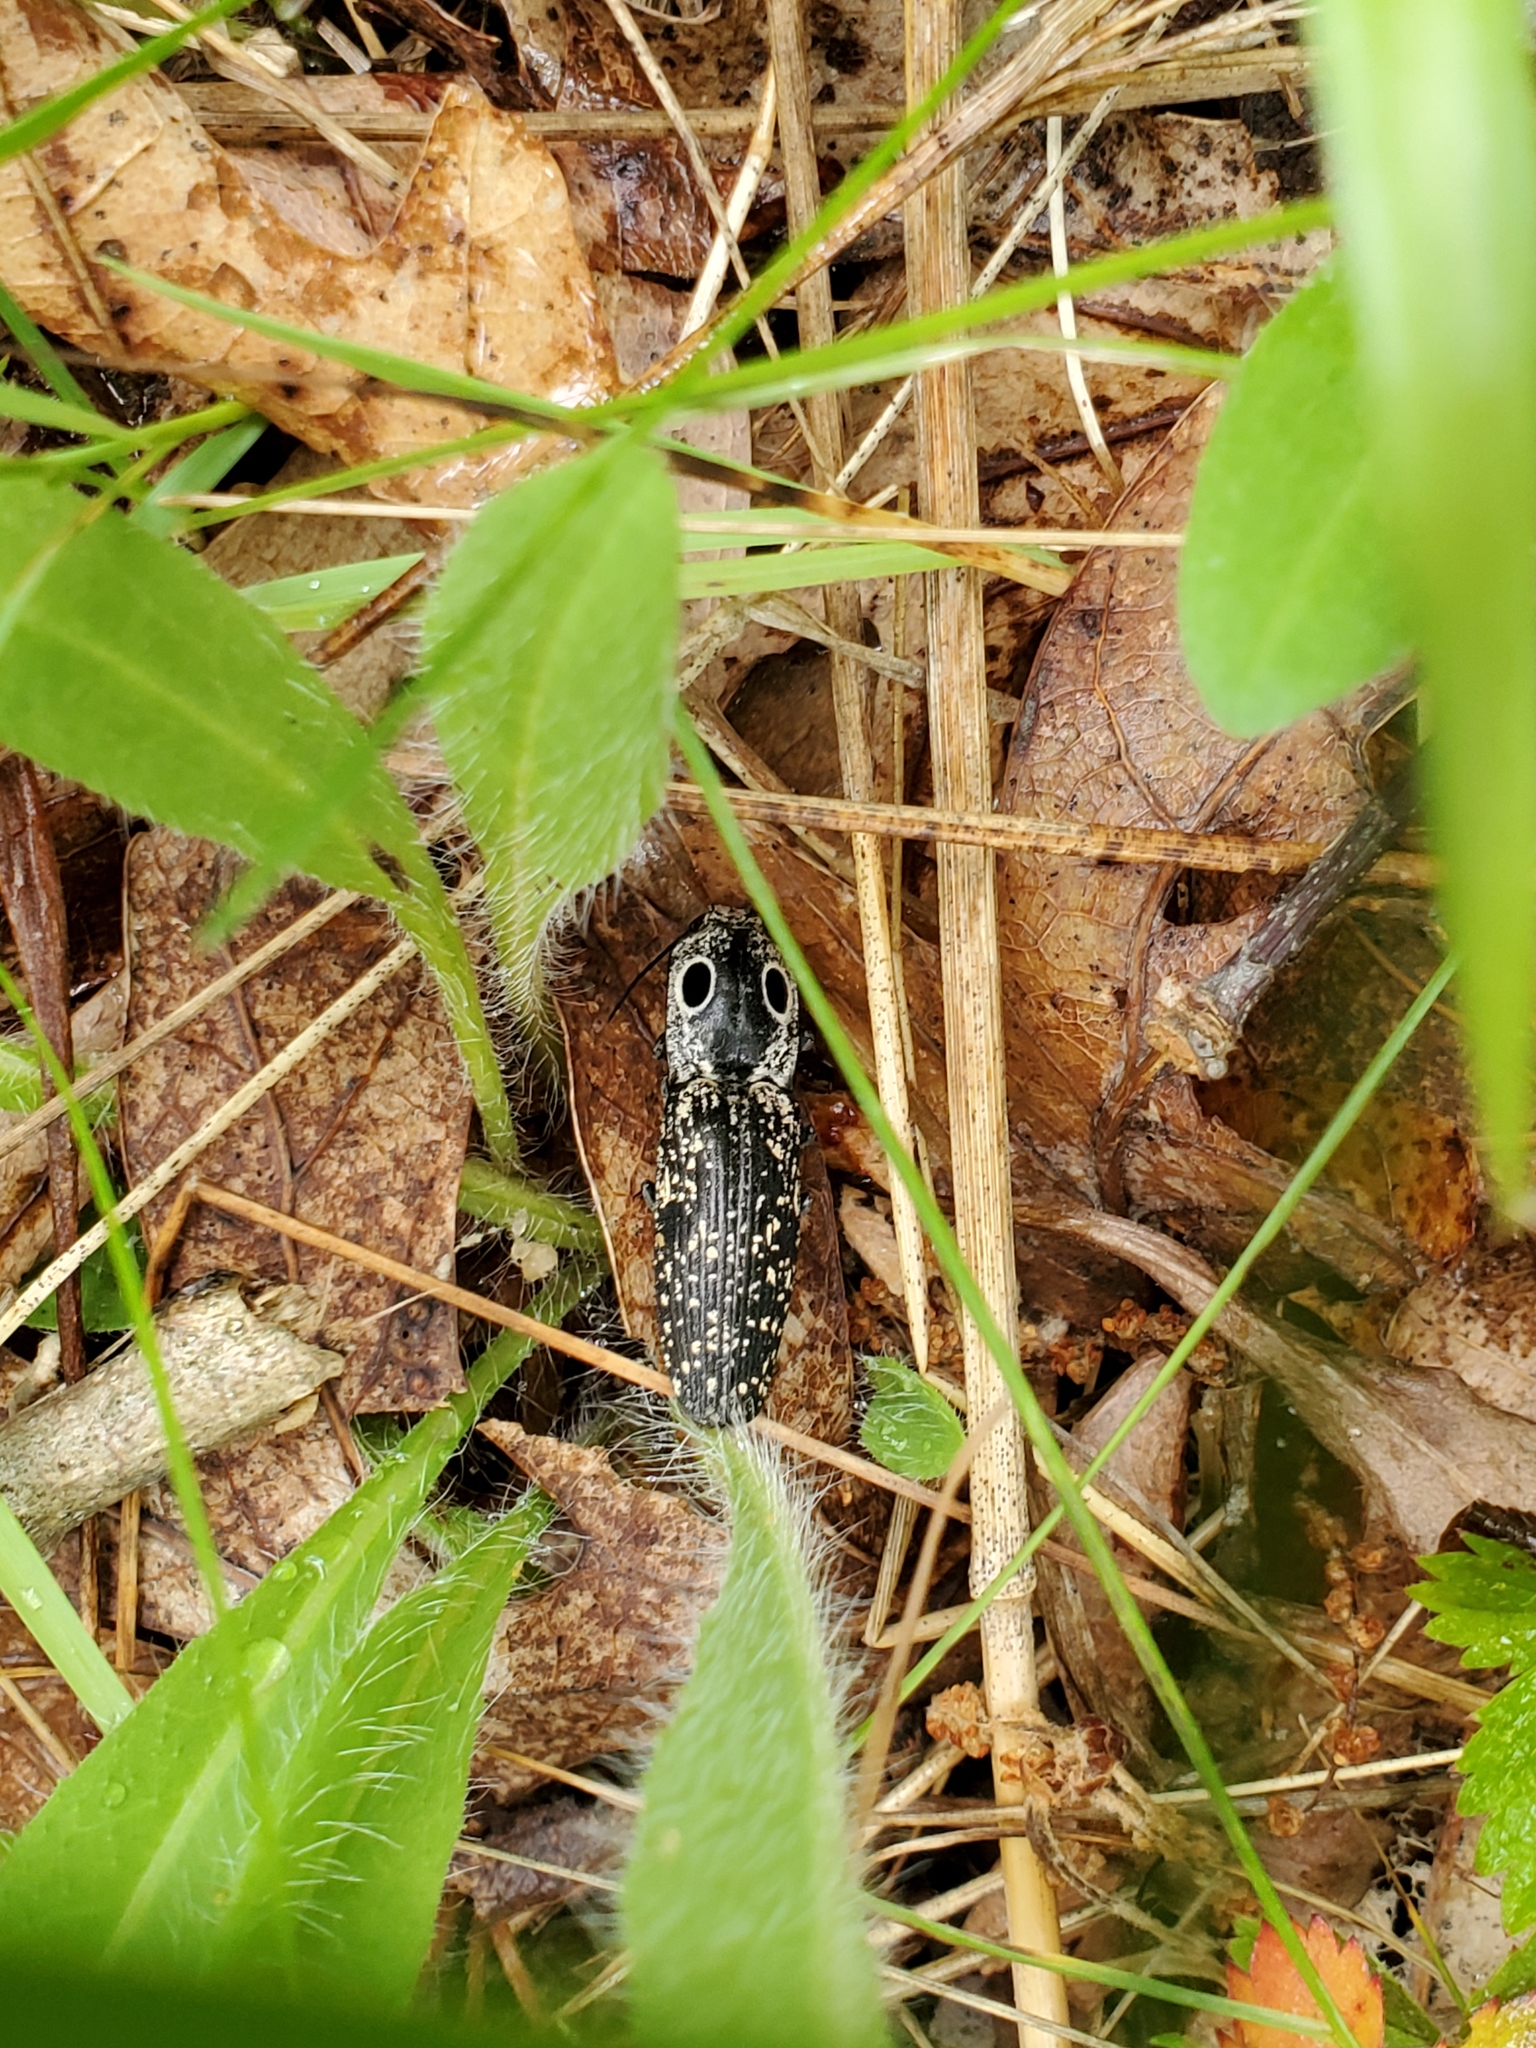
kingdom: Animalia
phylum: Arthropoda
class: Insecta
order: Coleoptera
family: Elateridae
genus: Alaus
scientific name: Alaus oculatus
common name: Eastern eyed click beetle
